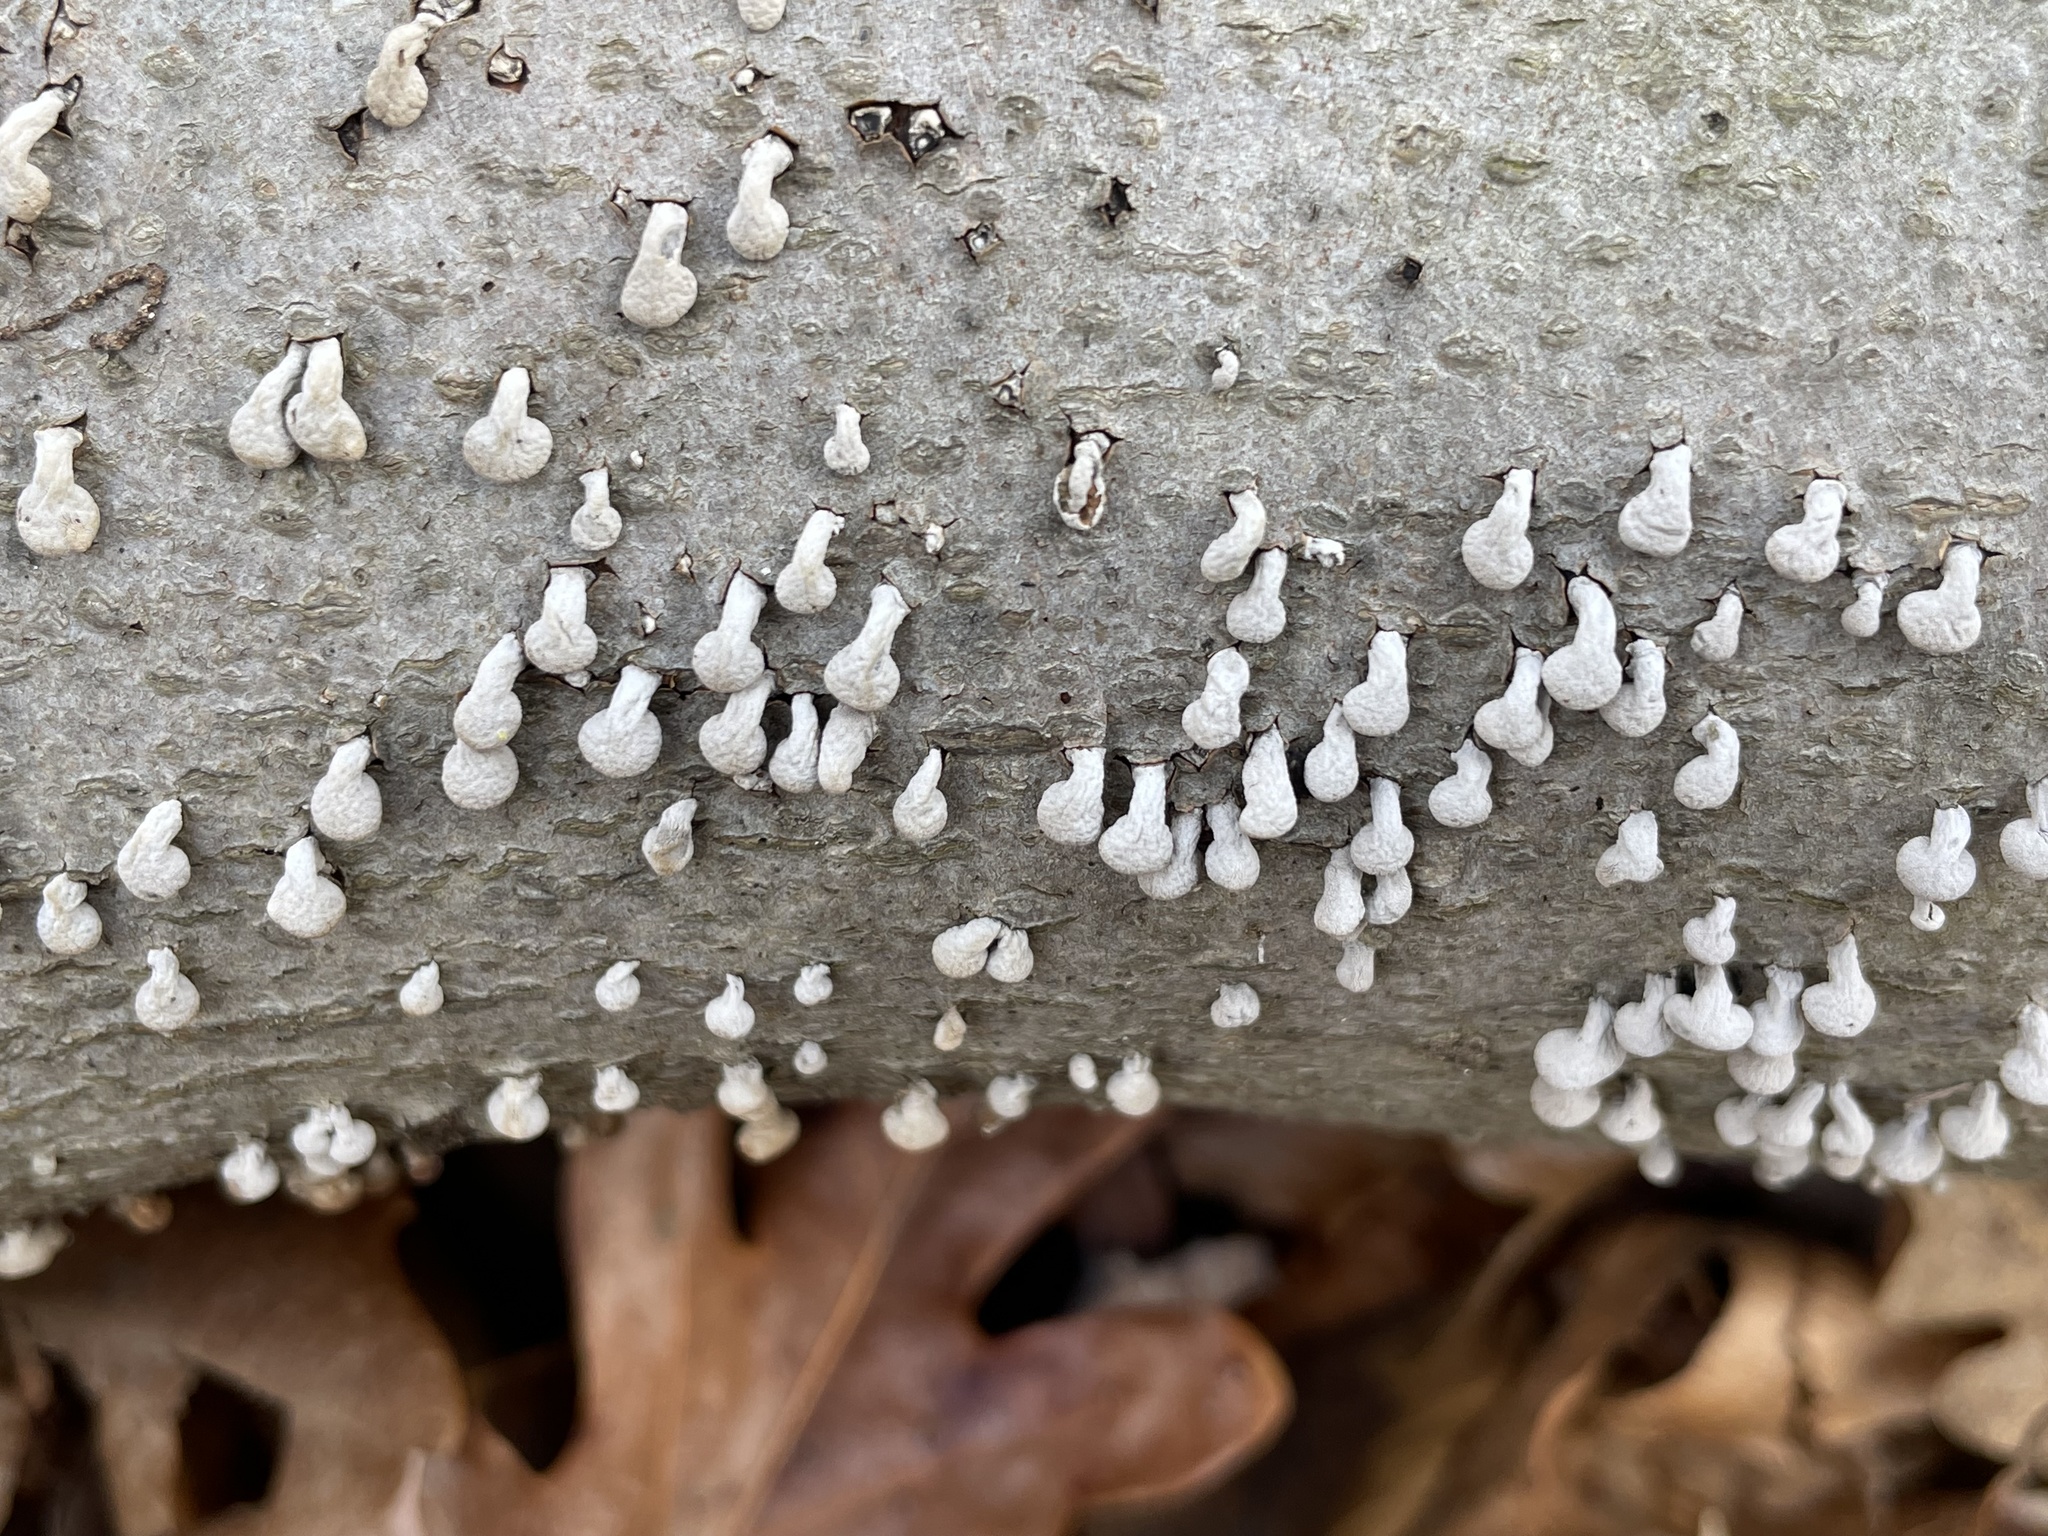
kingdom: Fungi
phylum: Basidiomycota
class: Atractiellomycetes
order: Atractiellales
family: Phleogenaceae
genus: Phleogena
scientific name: Phleogena faginea
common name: Fenugreek stalkball
